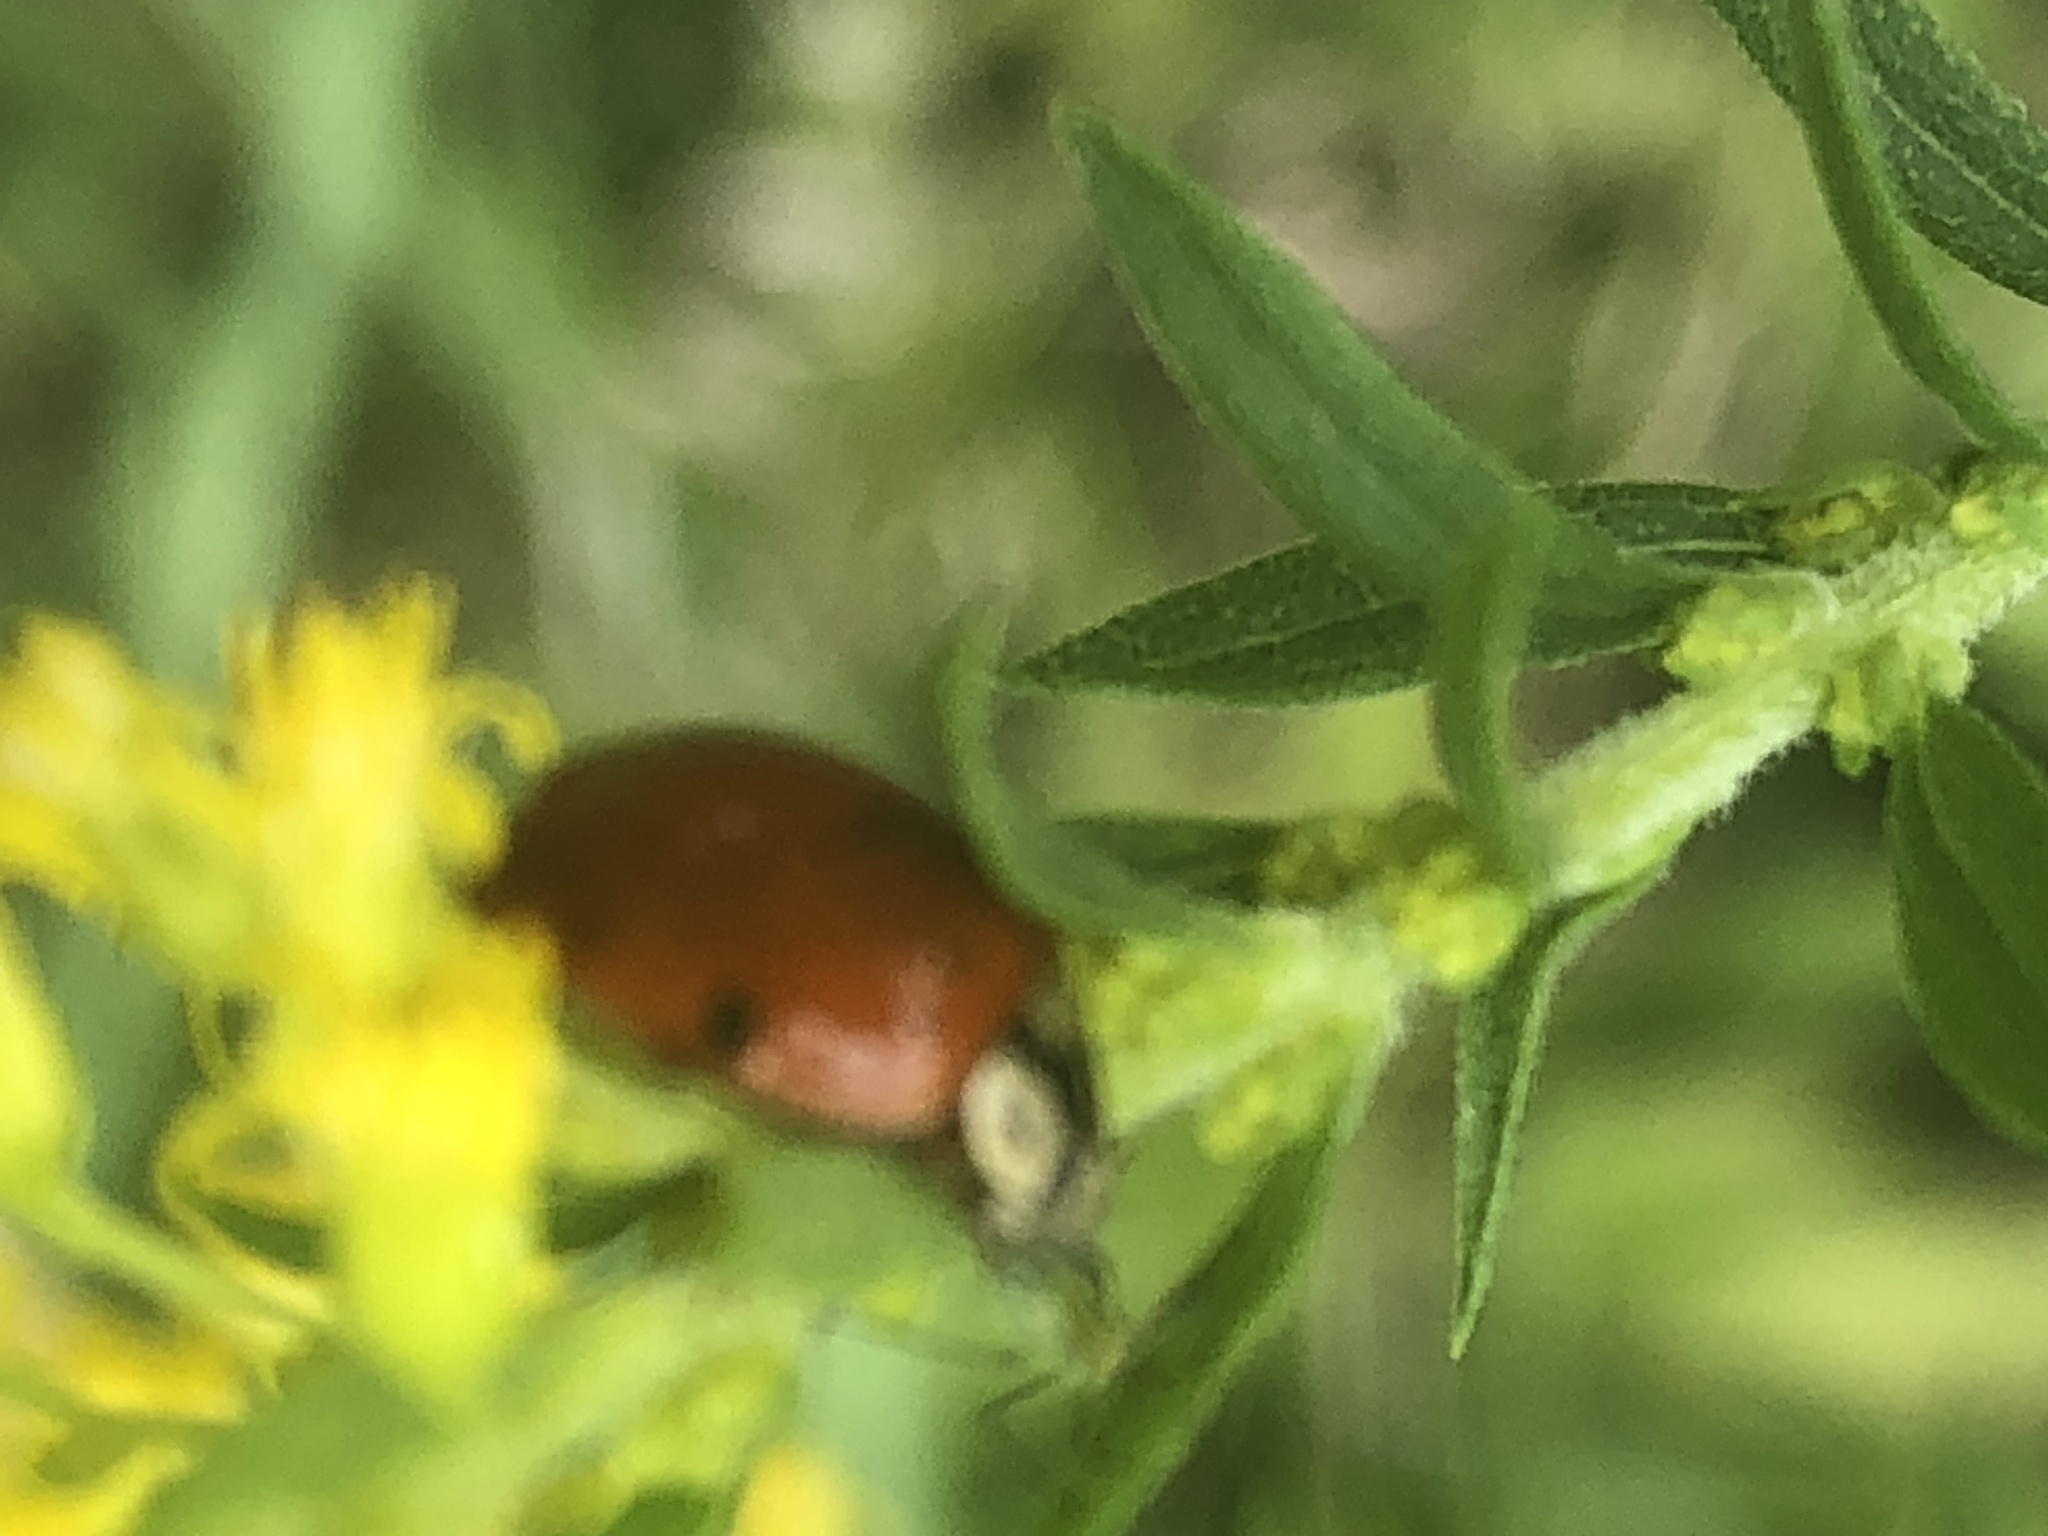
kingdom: Animalia
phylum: Arthropoda
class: Insecta
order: Coleoptera
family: Coccinellidae
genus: Harmonia
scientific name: Harmonia axyridis
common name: Harlequin ladybird
